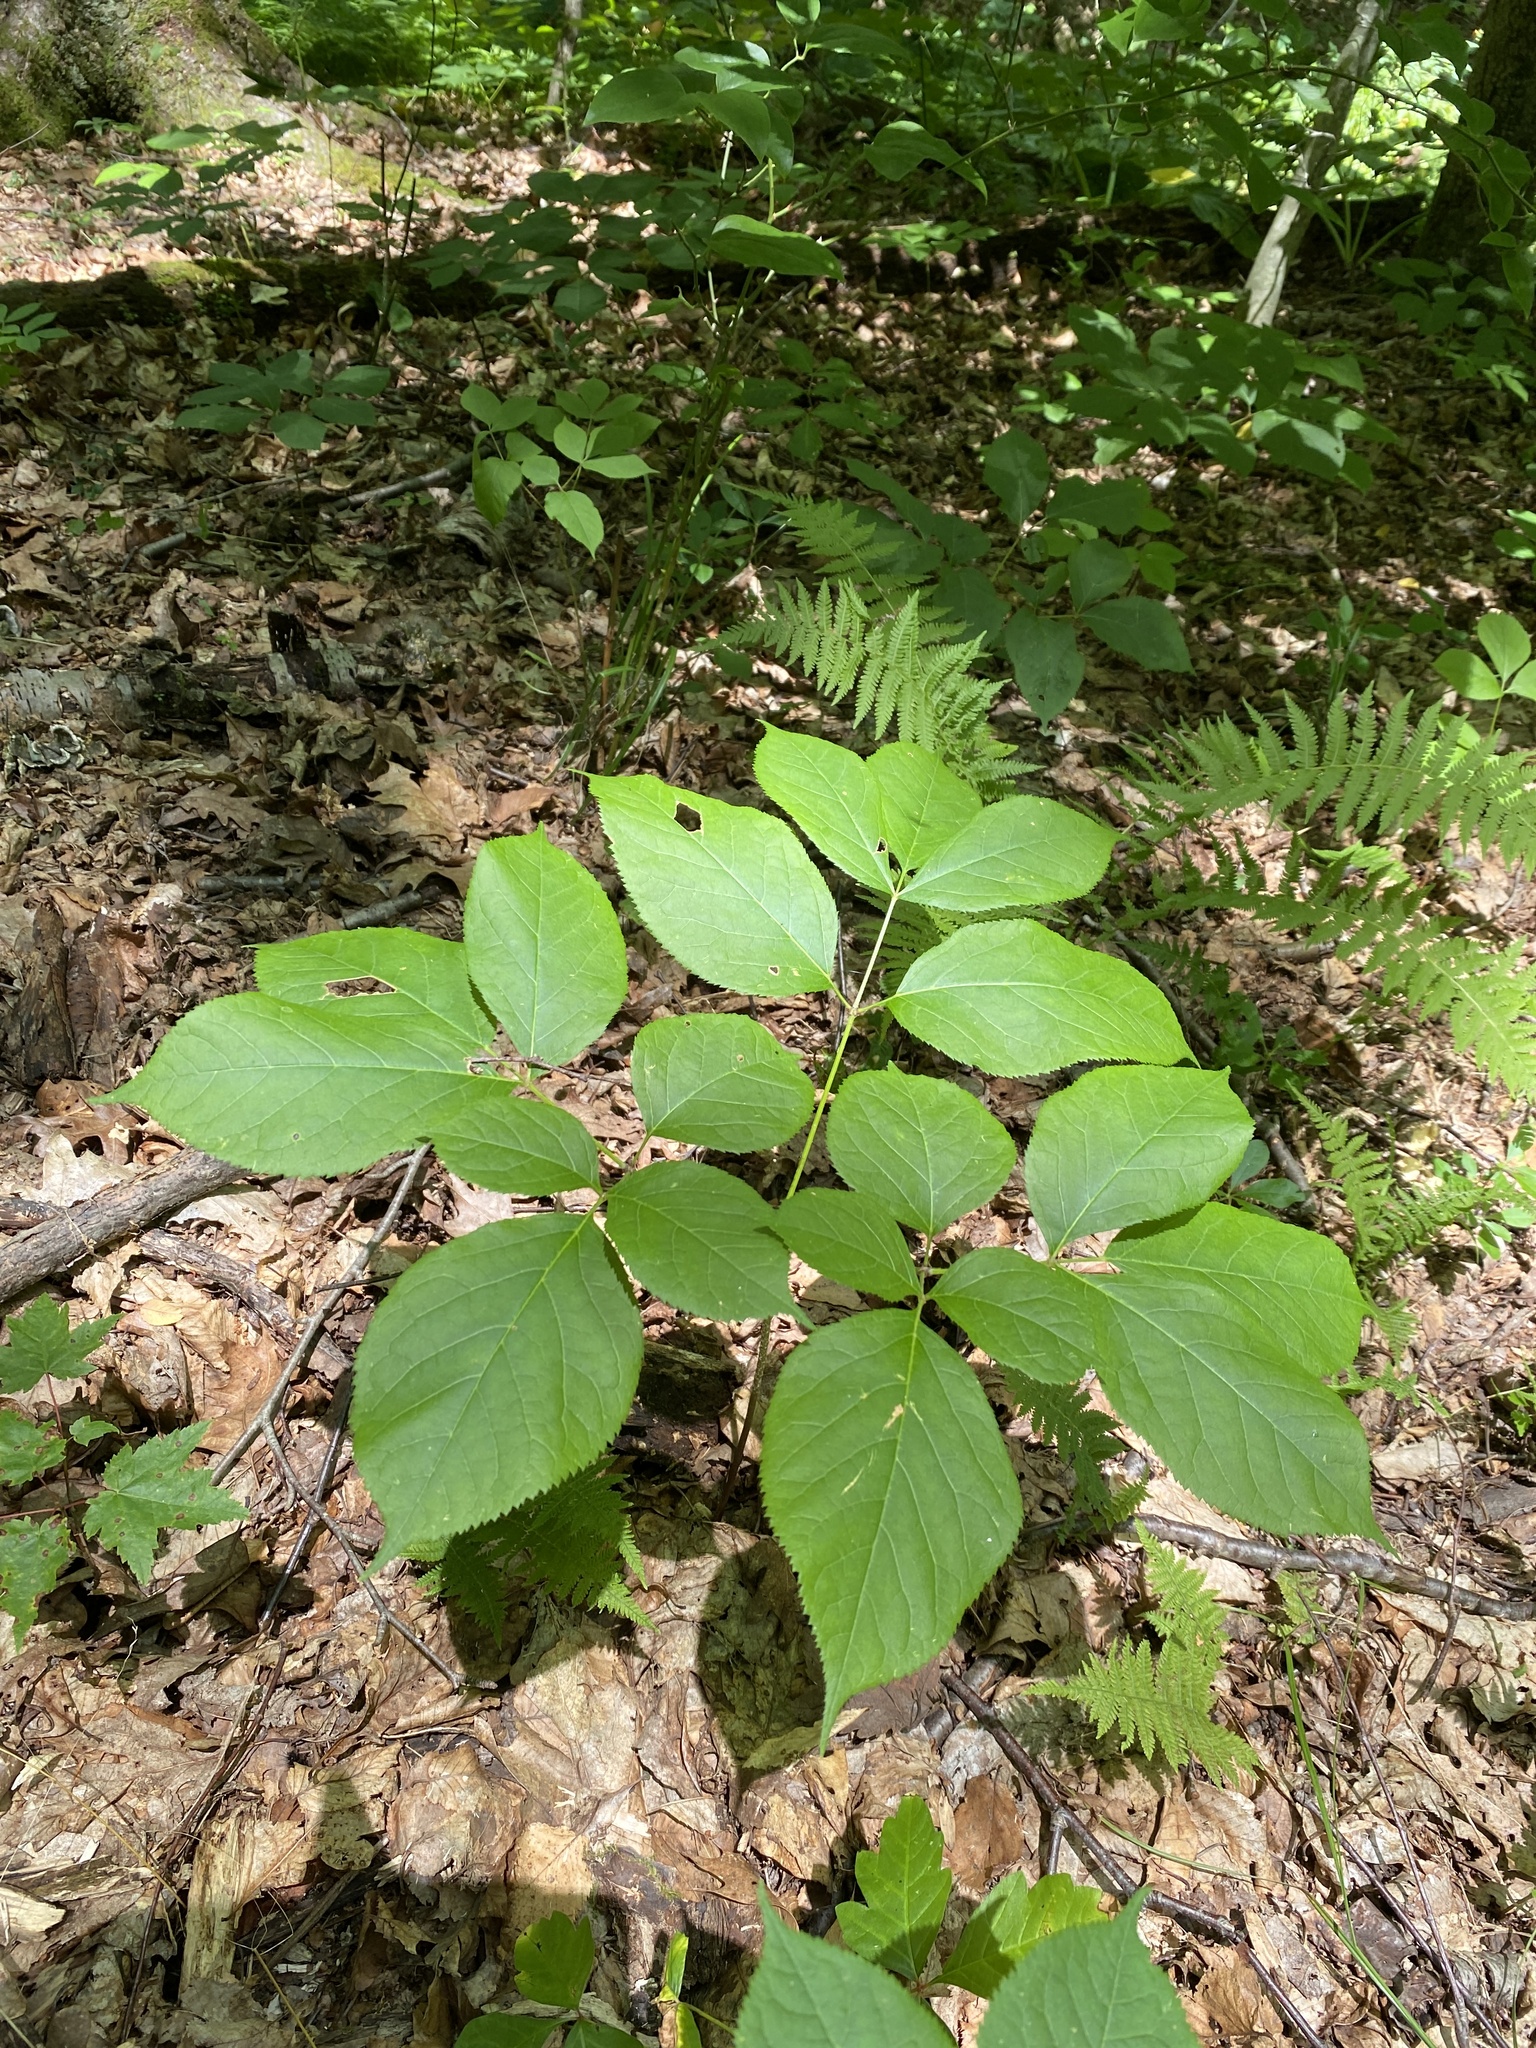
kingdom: Plantae
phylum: Tracheophyta
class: Magnoliopsida
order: Apiales
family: Araliaceae
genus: Aralia
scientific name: Aralia nudicaulis
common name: Wild sarsaparilla
